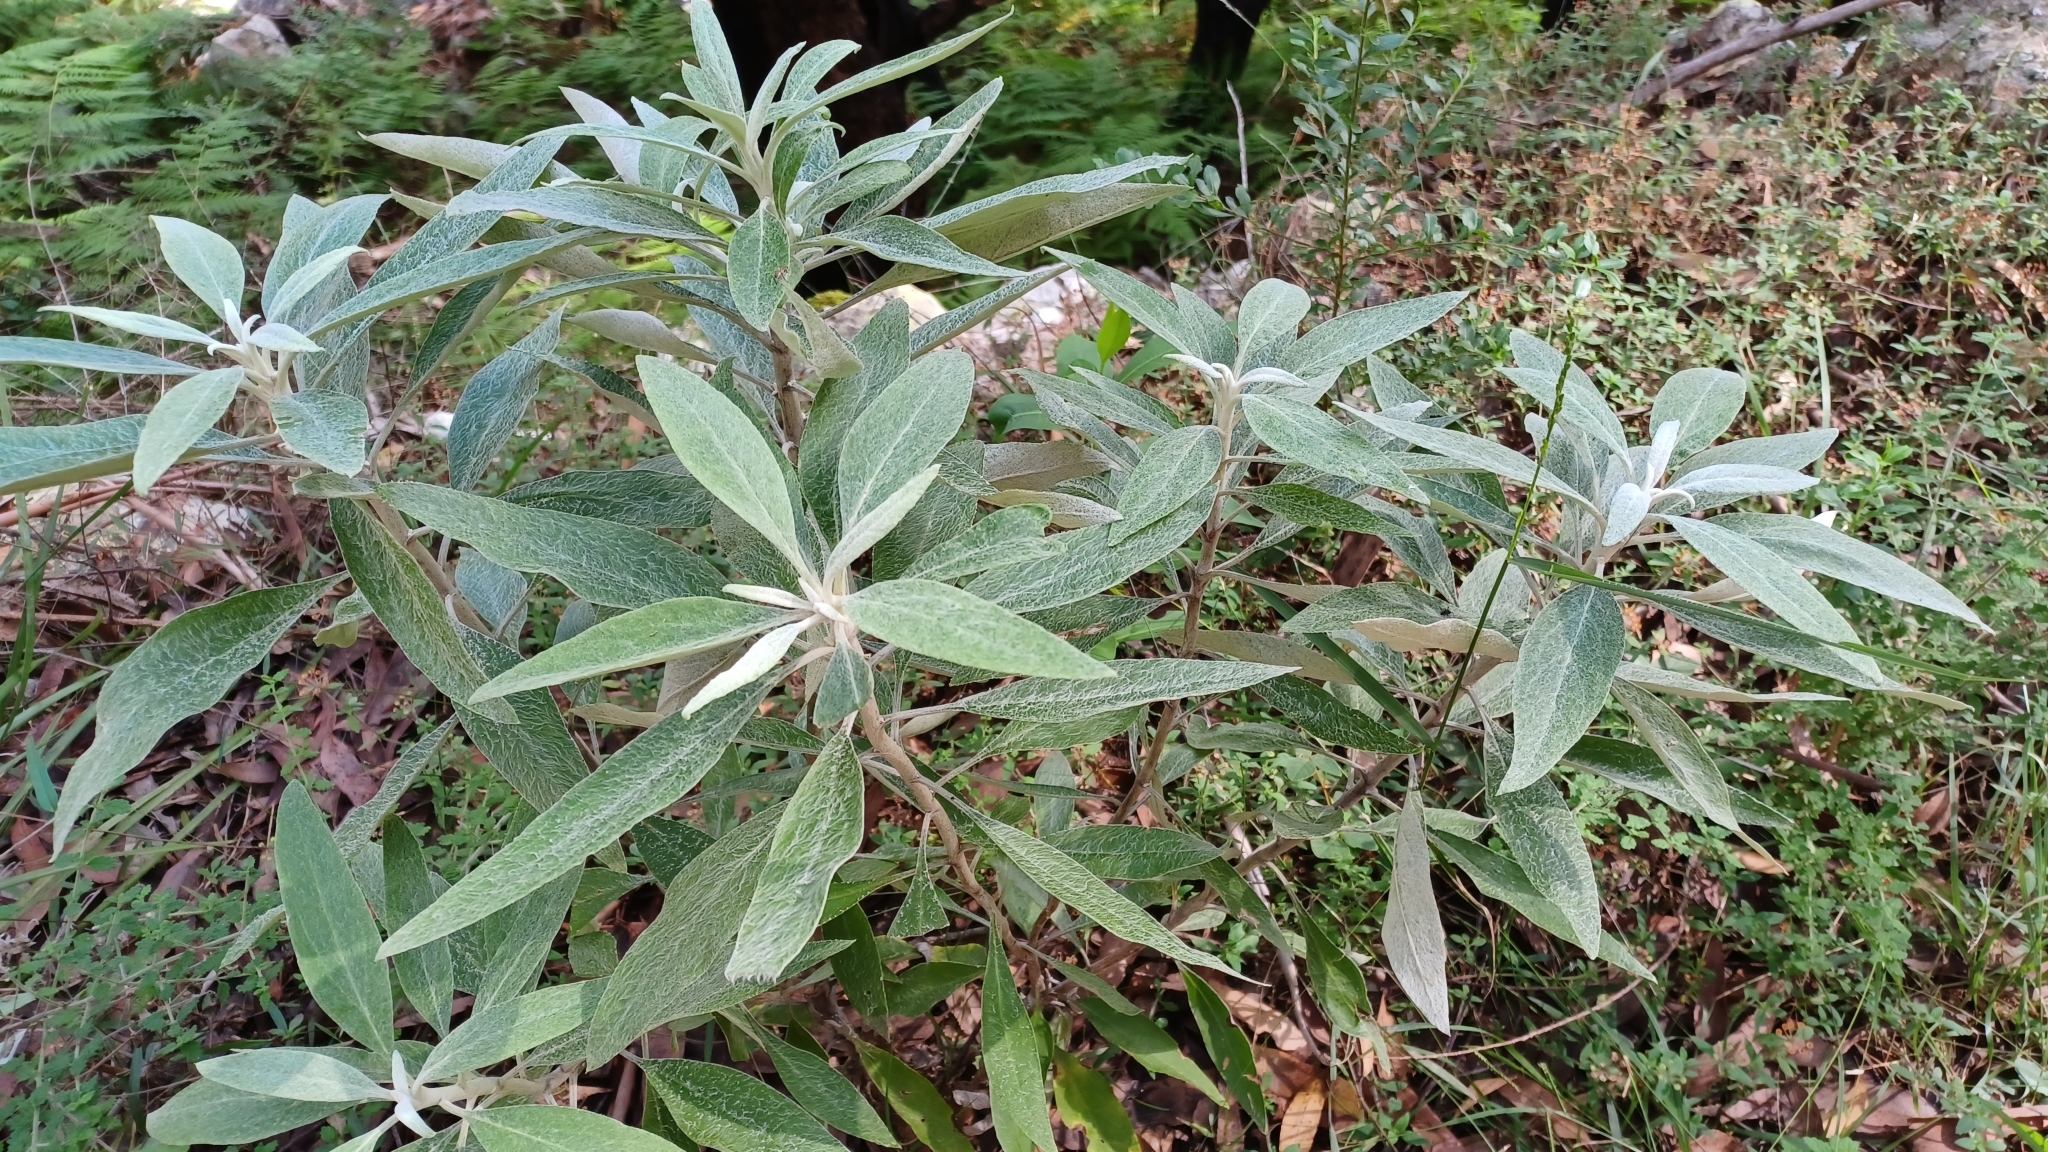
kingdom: Plantae
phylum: Tracheophyta
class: Magnoliopsida
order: Asterales
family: Asteraceae
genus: Leucozoma
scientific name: Leucozoma elatum
